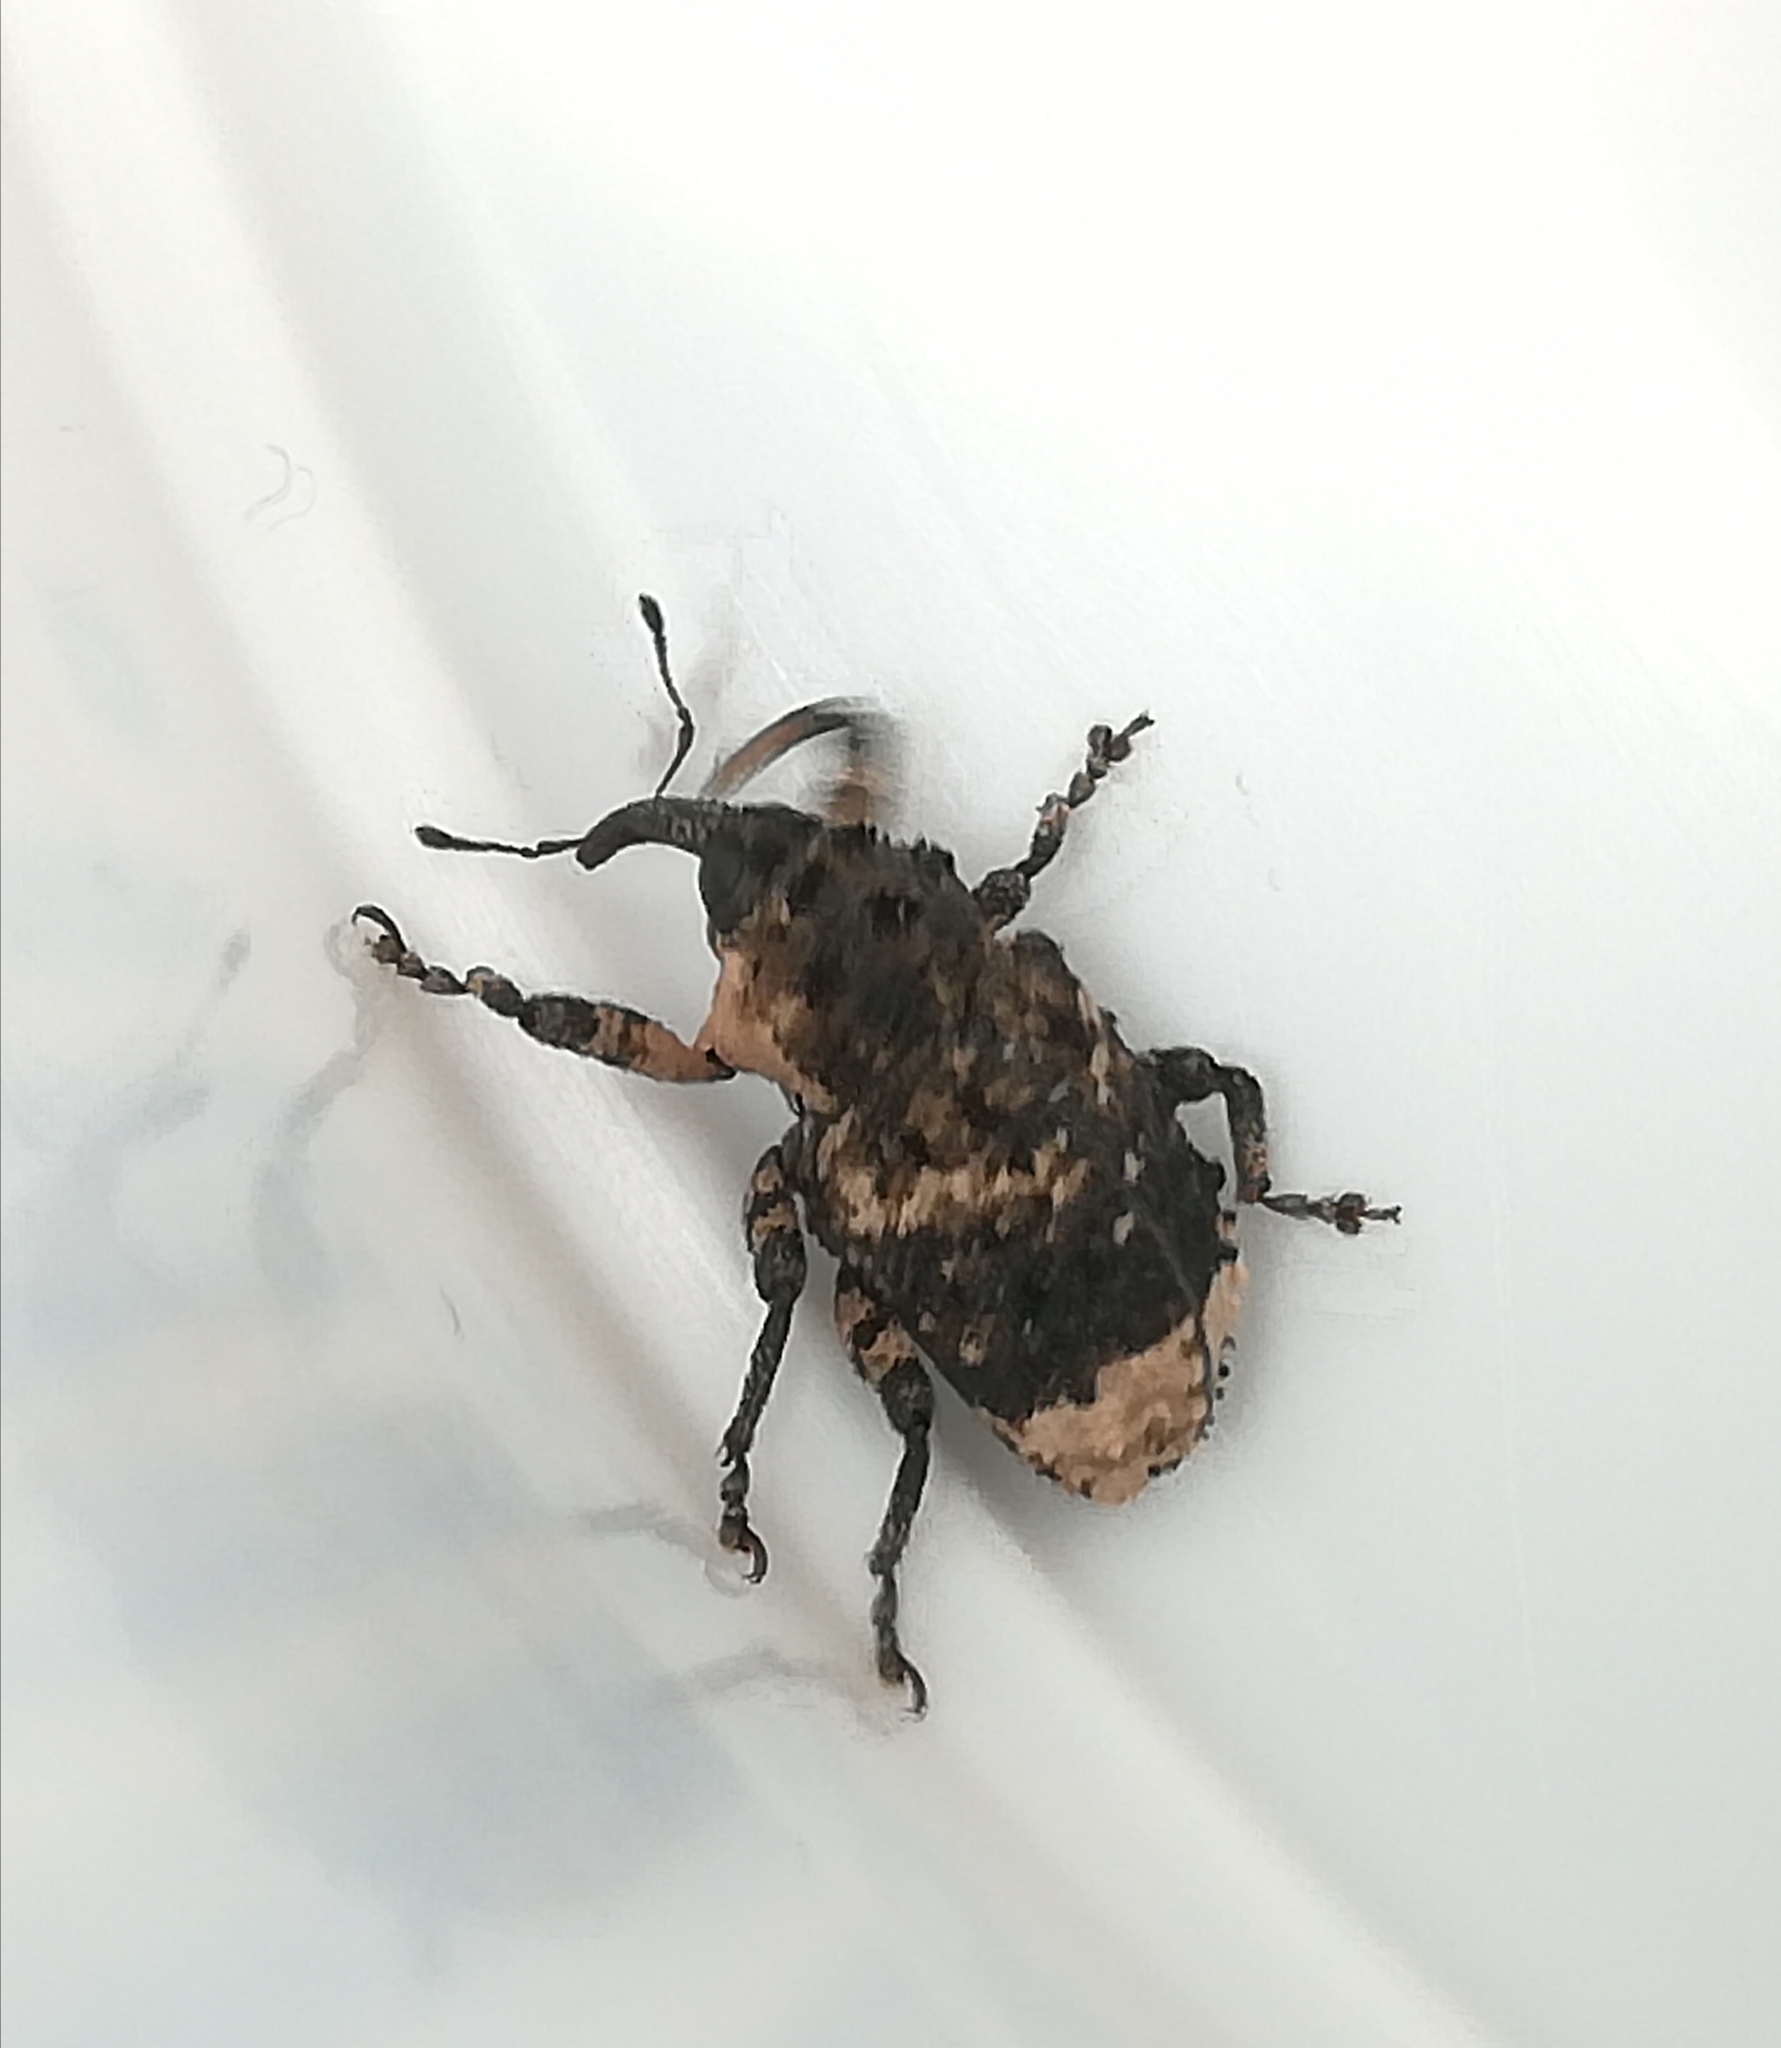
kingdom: Animalia
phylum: Arthropoda
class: Insecta
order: Coleoptera
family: Curculionidae
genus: Cryptorhynchus
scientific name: Cryptorhynchus lapathi
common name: Weevil
